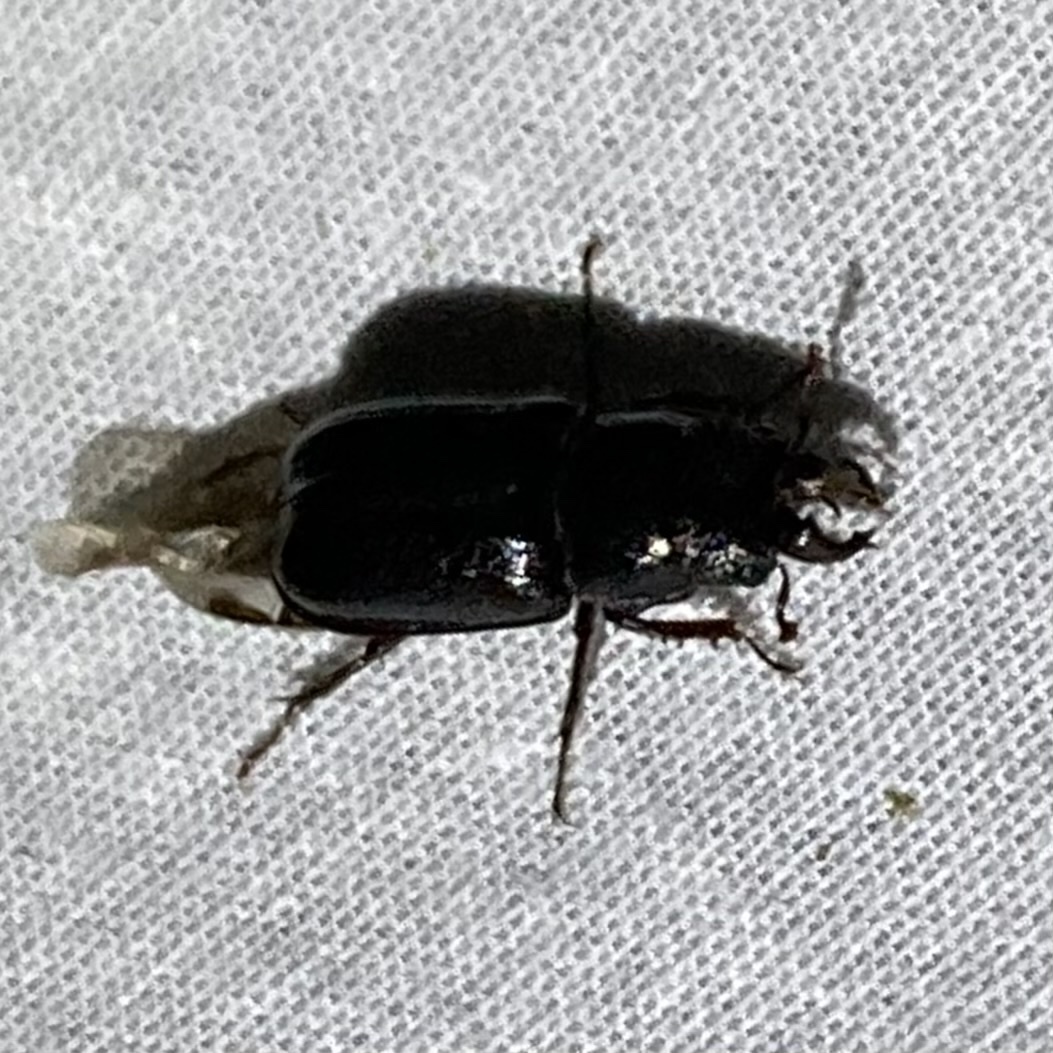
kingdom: Animalia
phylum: Arthropoda
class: Insecta
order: Coleoptera
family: Lucanidae
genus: Ceruchus
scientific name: Ceruchus piceus
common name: Red-rot decay stag beetle
